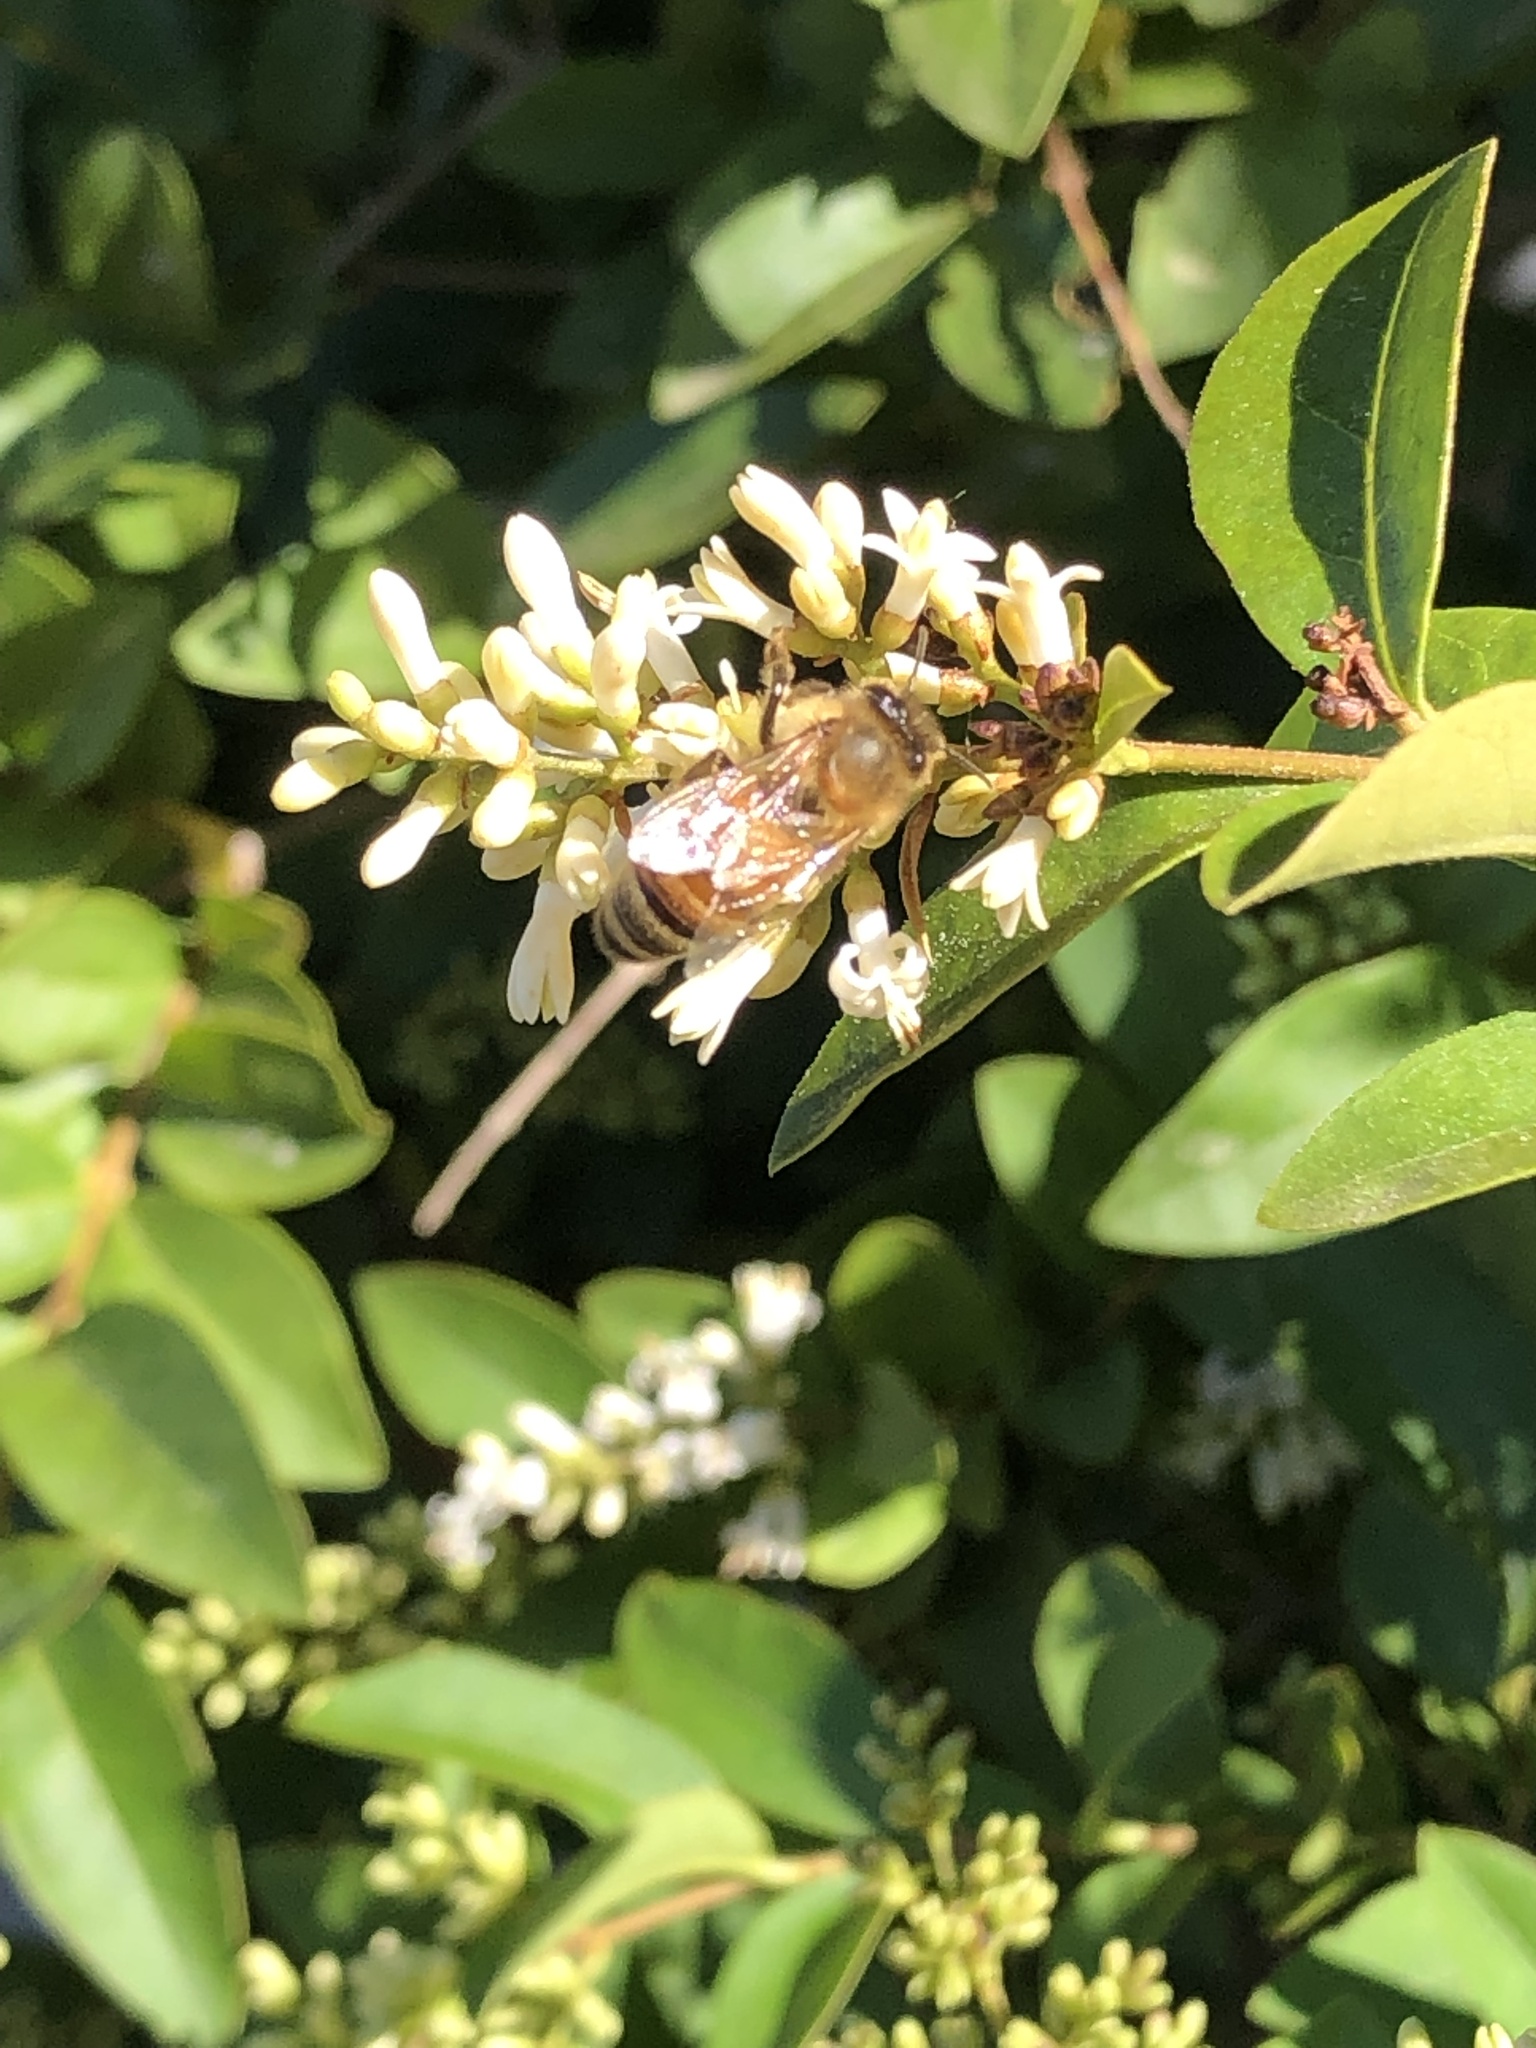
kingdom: Animalia
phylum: Arthropoda
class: Insecta
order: Hymenoptera
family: Apidae
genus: Apis
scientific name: Apis mellifera
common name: Honey bee
